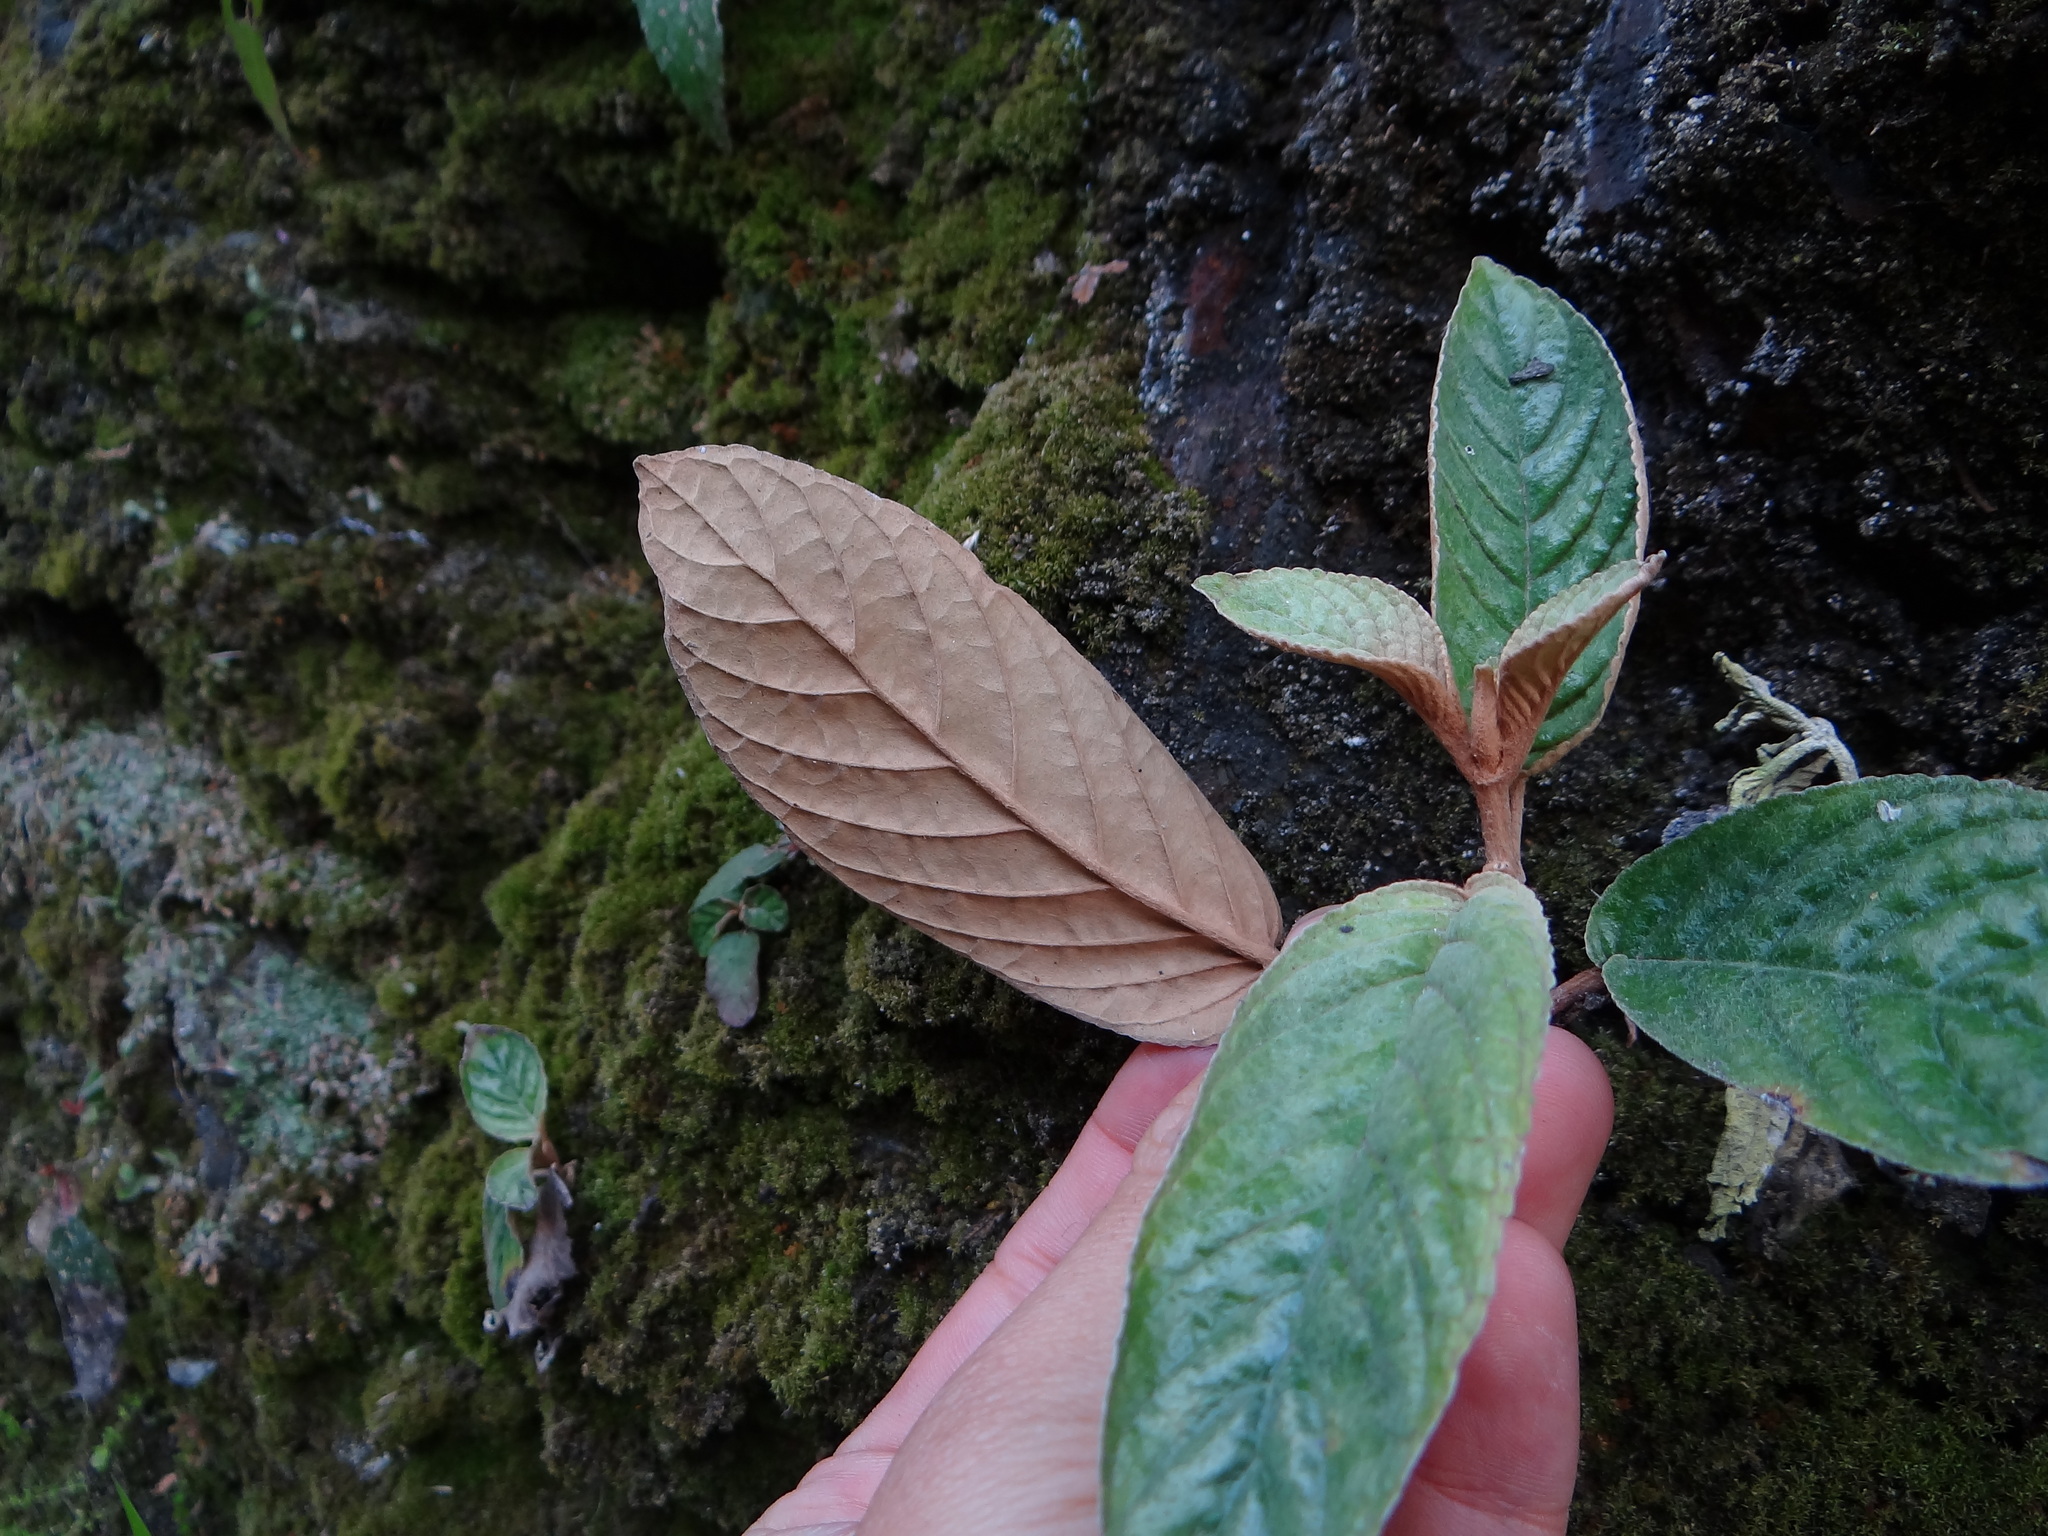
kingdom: Plantae
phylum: Tracheophyta
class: Magnoliopsida
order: Lamiales
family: Gesneriaceae
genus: Paraboea
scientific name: Paraboea swinhoei
